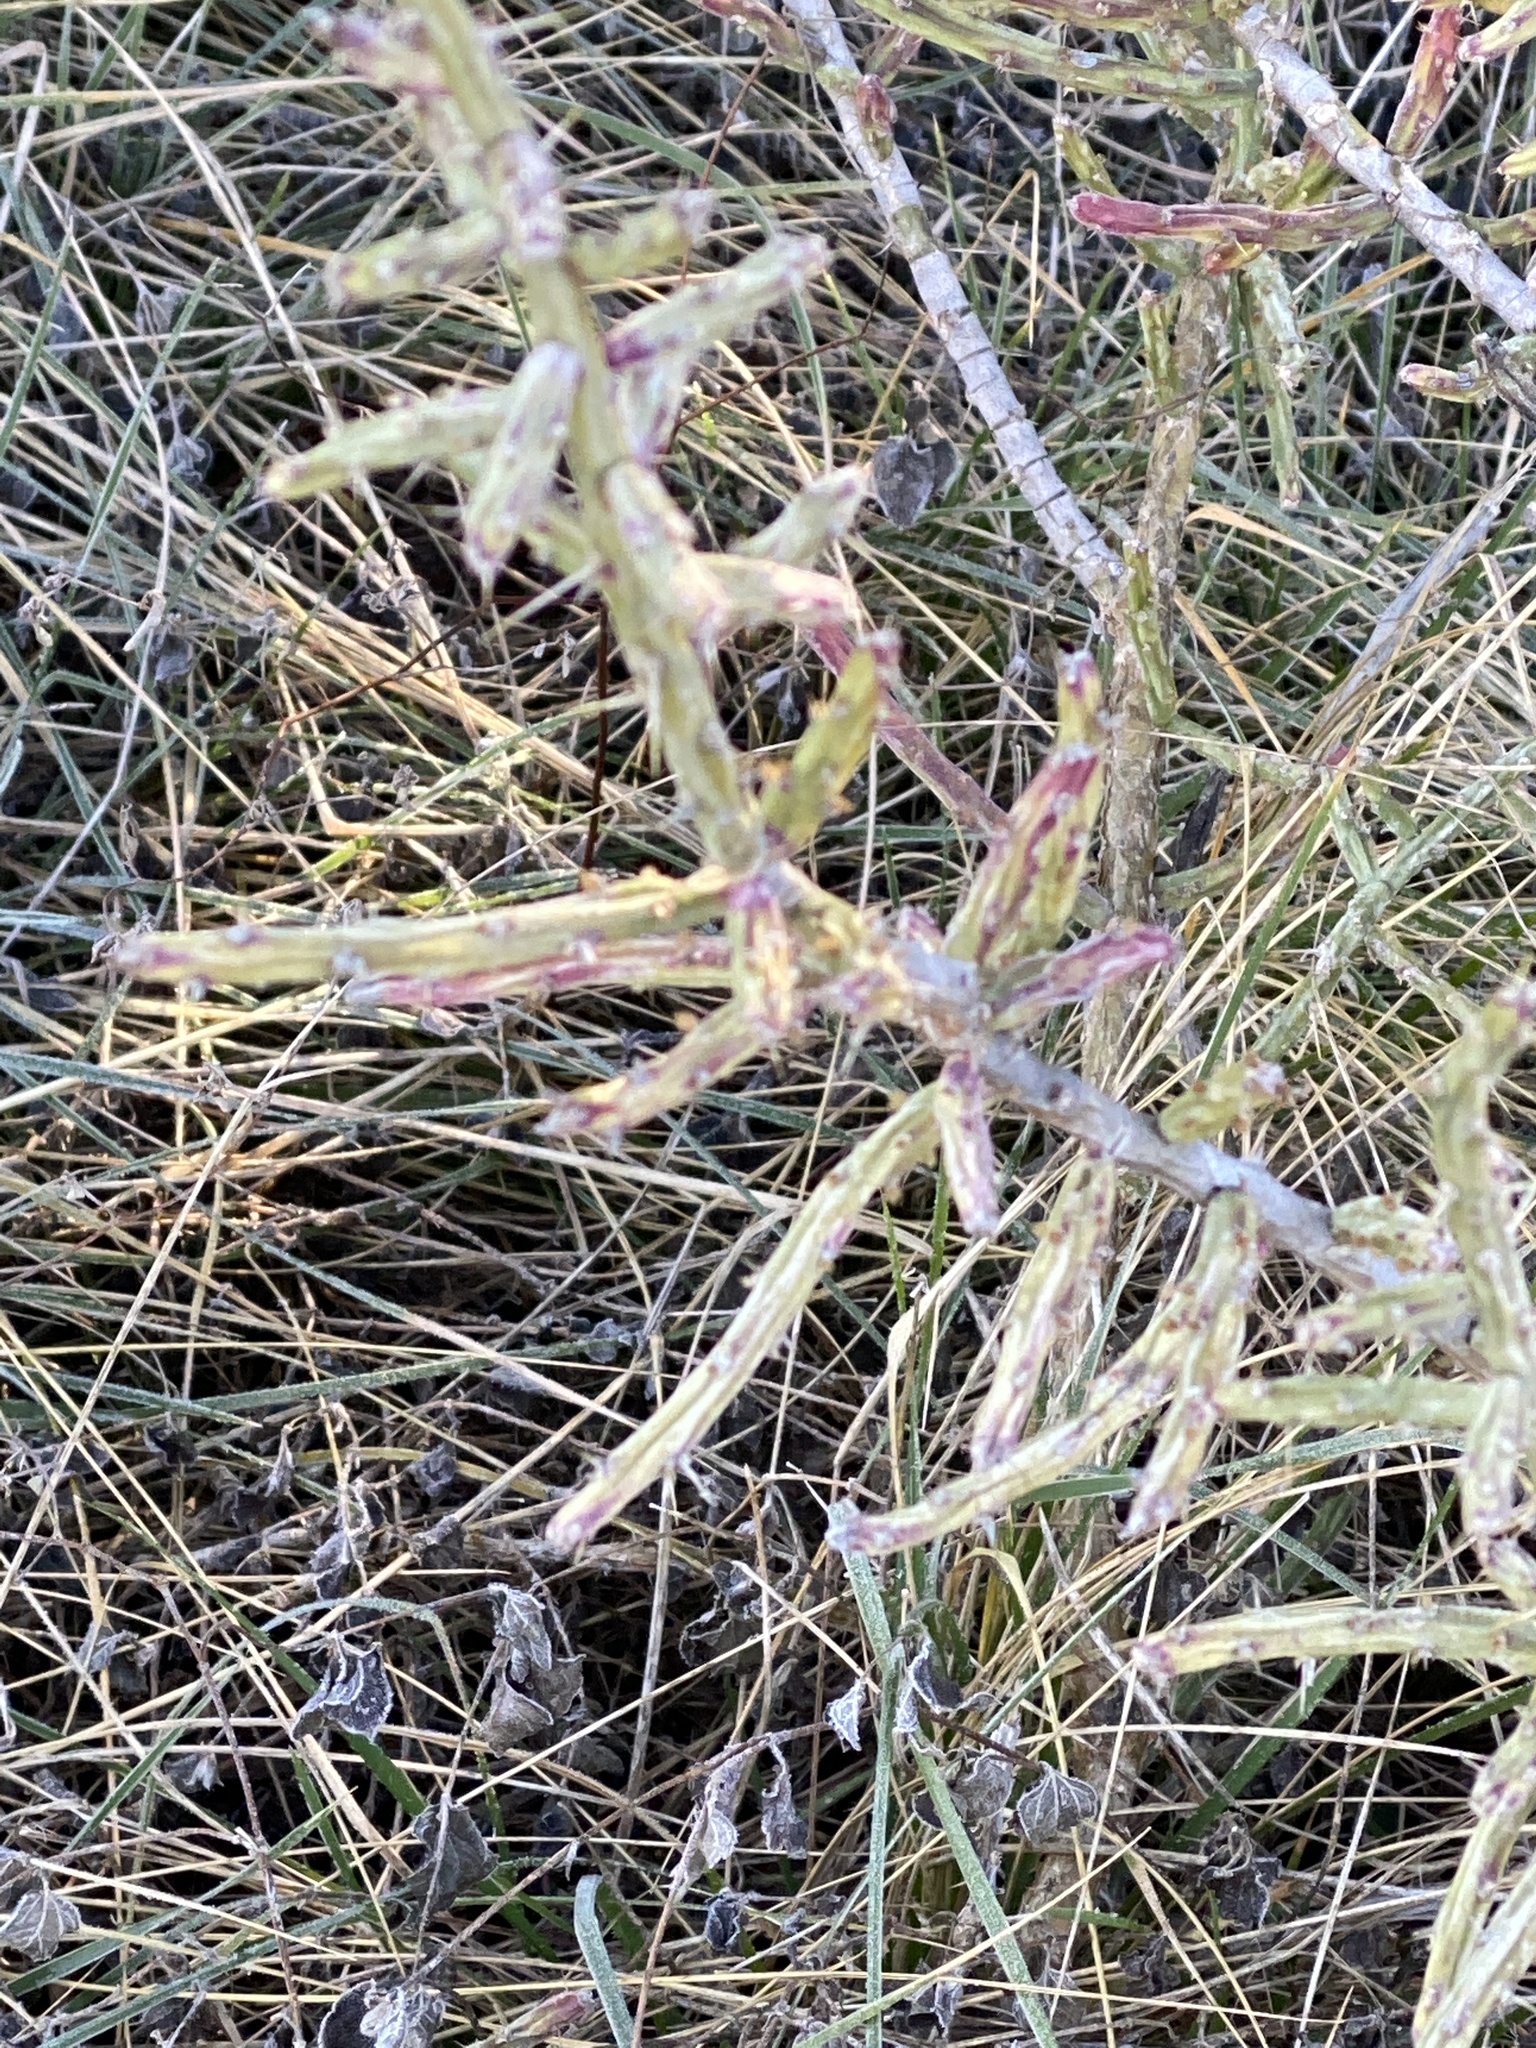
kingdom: Plantae
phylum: Tracheophyta
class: Magnoliopsida
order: Caryophyllales
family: Cactaceae
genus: Cylindropuntia
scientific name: Cylindropuntia leptocaulis
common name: Christmas cactus
